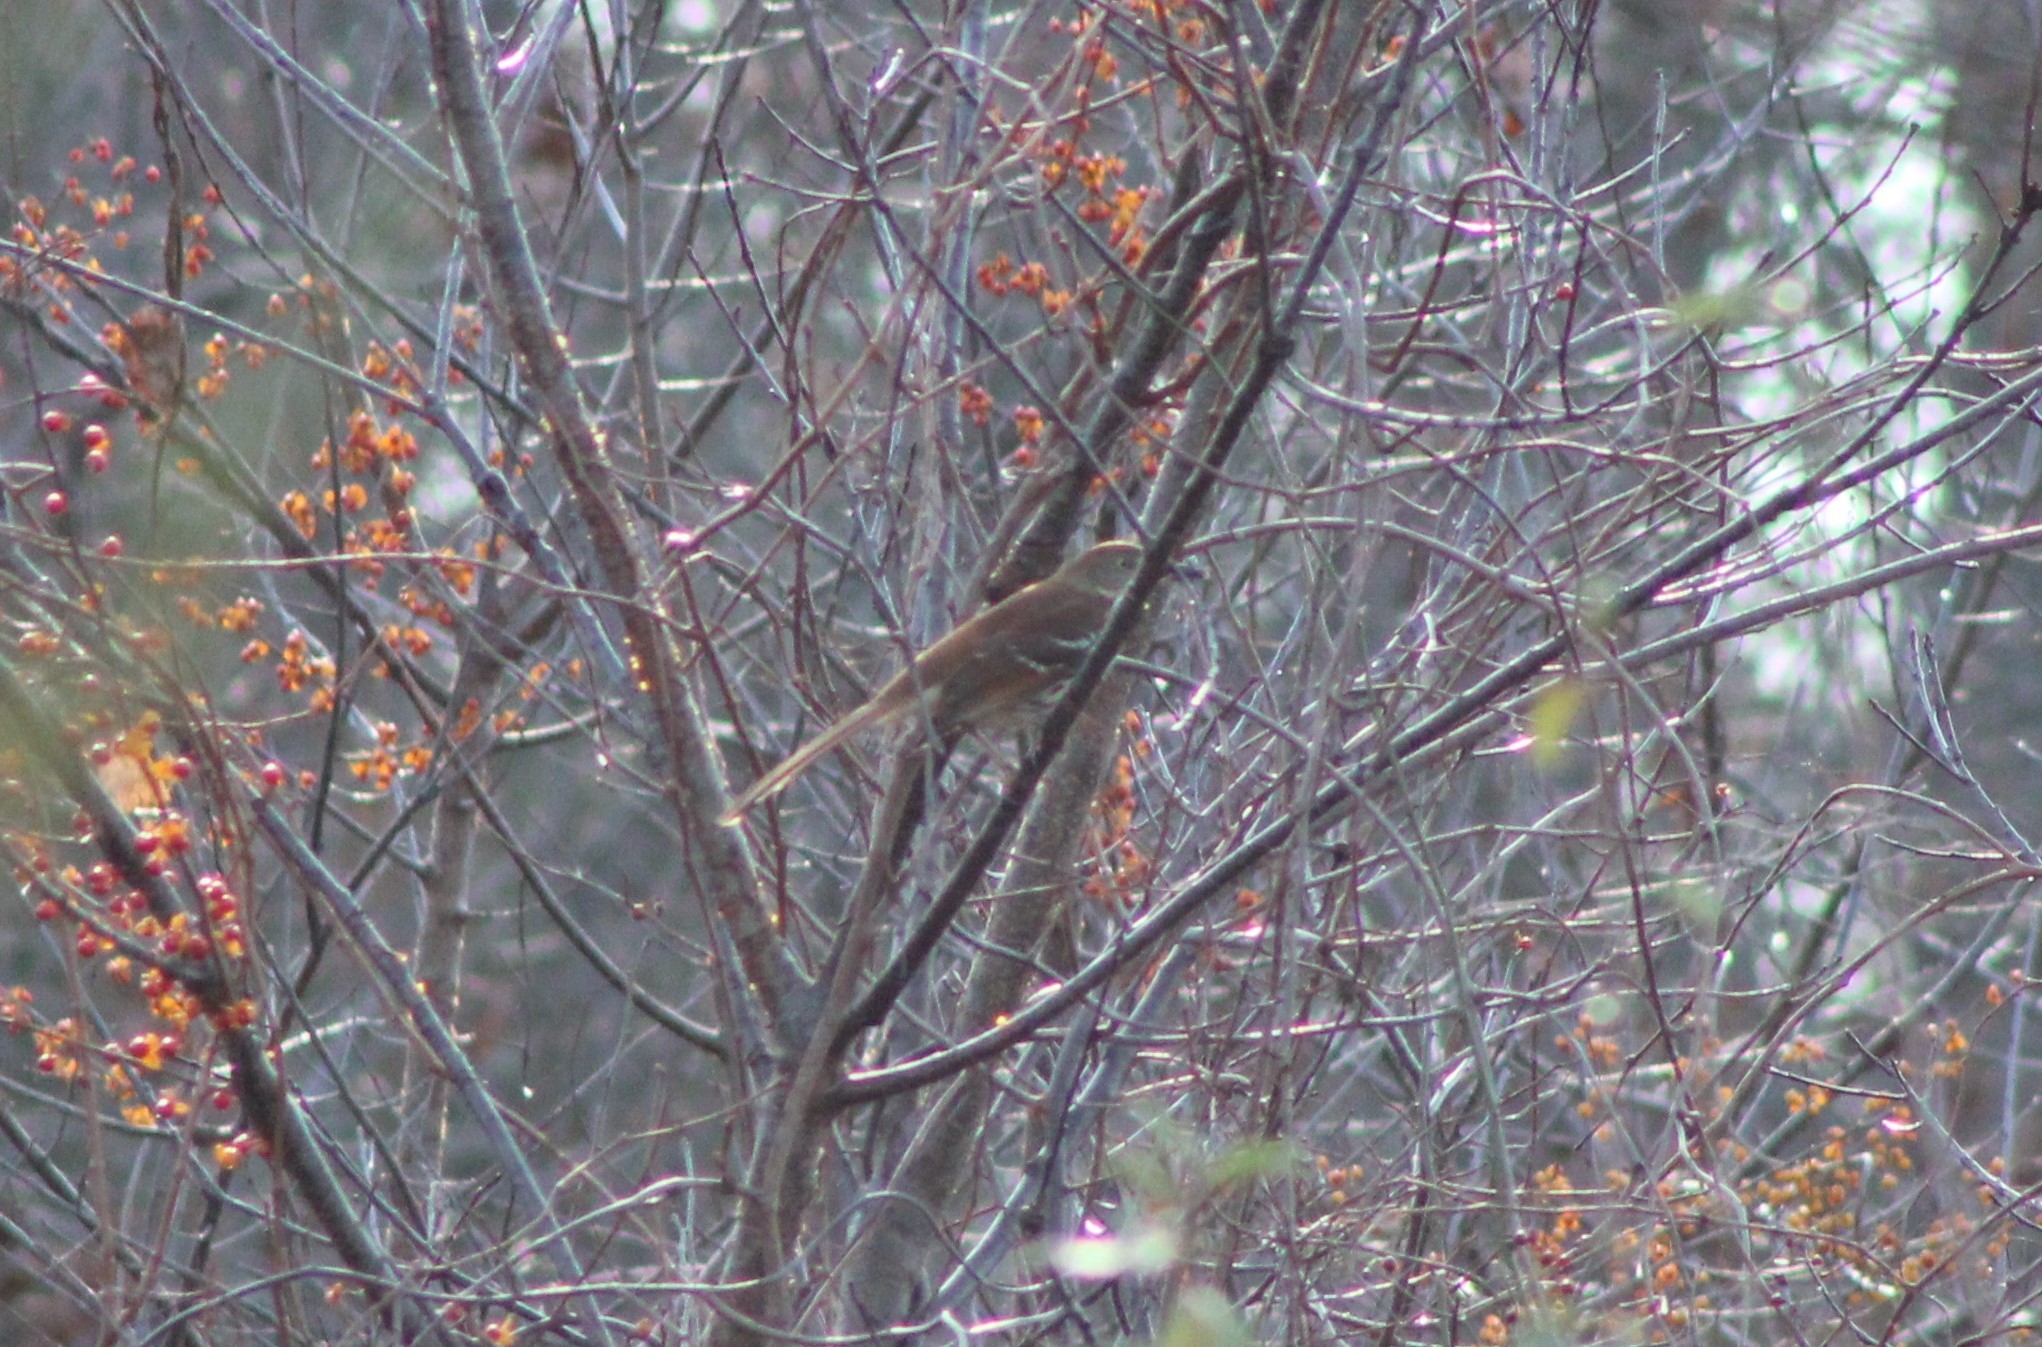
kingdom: Animalia
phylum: Chordata
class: Aves
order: Passeriformes
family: Mimidae
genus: Toxostoma
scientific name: Toxostoma rufum
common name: Brown thrasher
